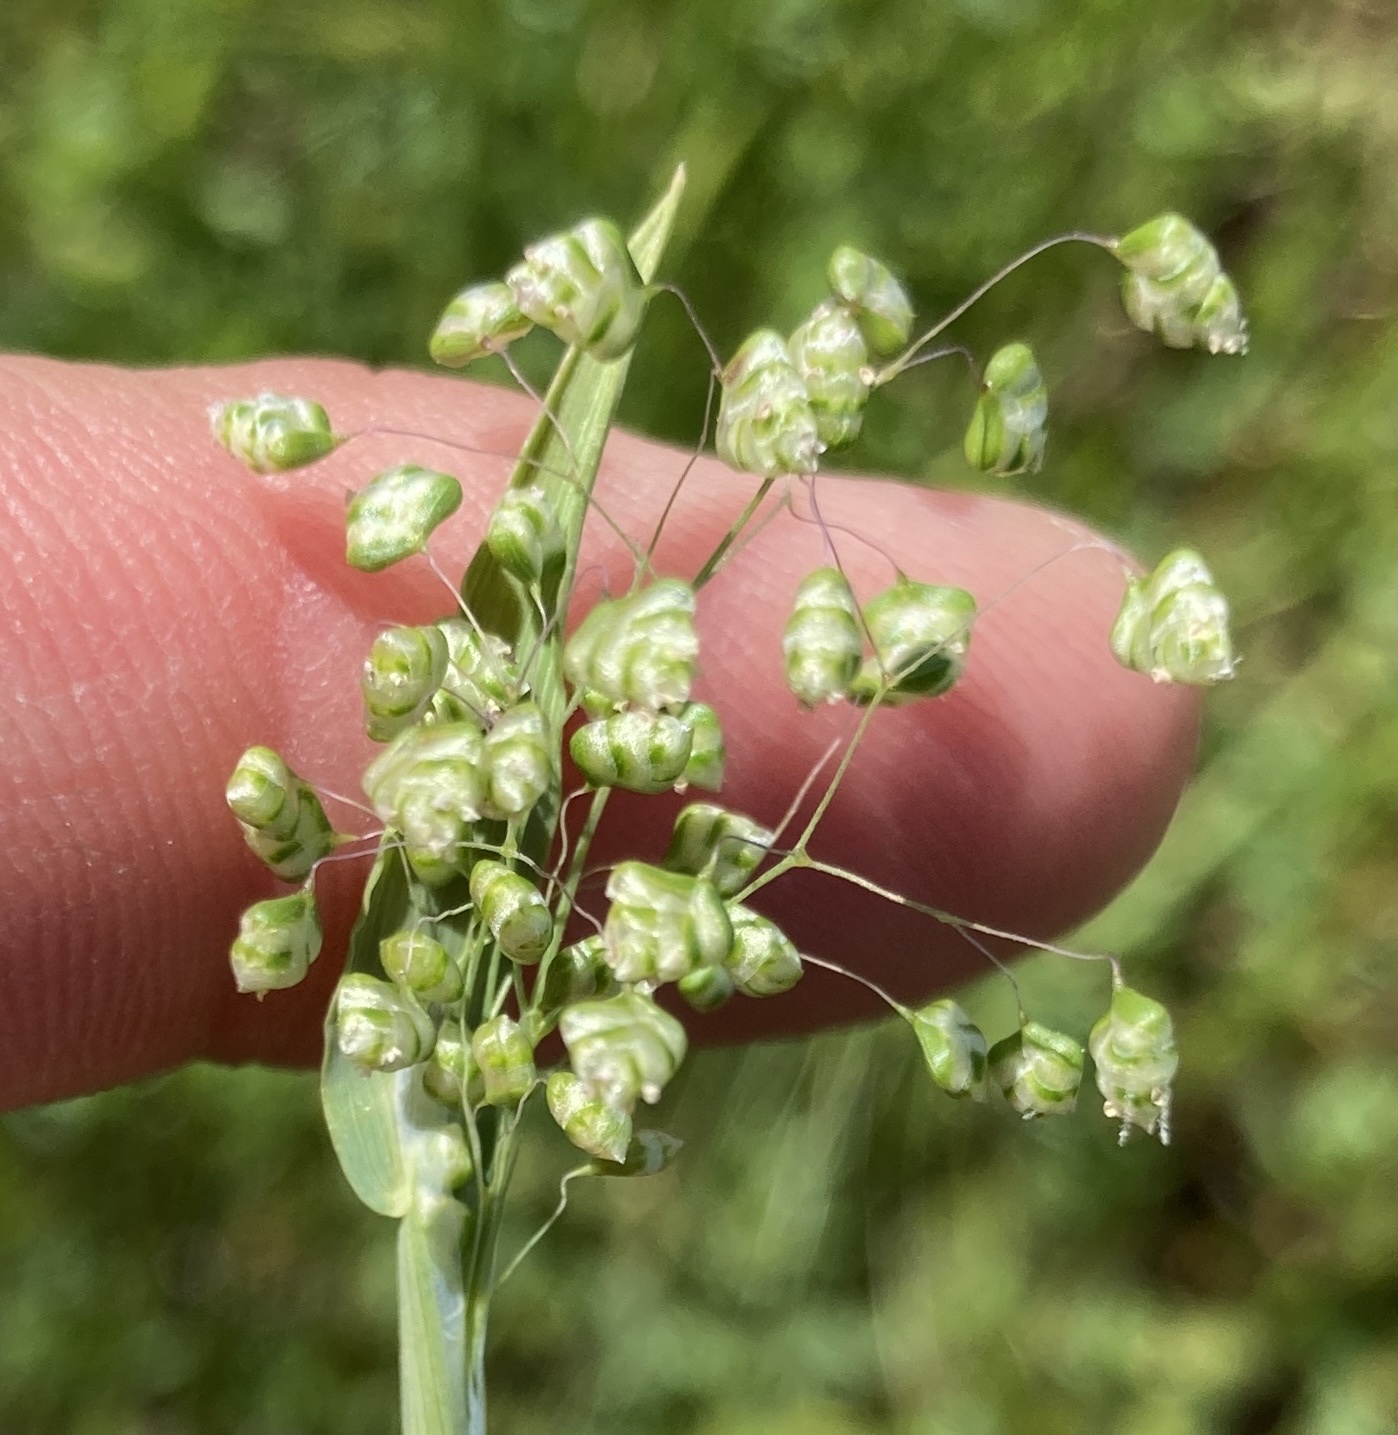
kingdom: Plantae
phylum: Tracheophyta
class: Liliopsida
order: Poales
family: Poaceae
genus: Briza
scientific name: Briza minor
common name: Lesser quaking-grass
